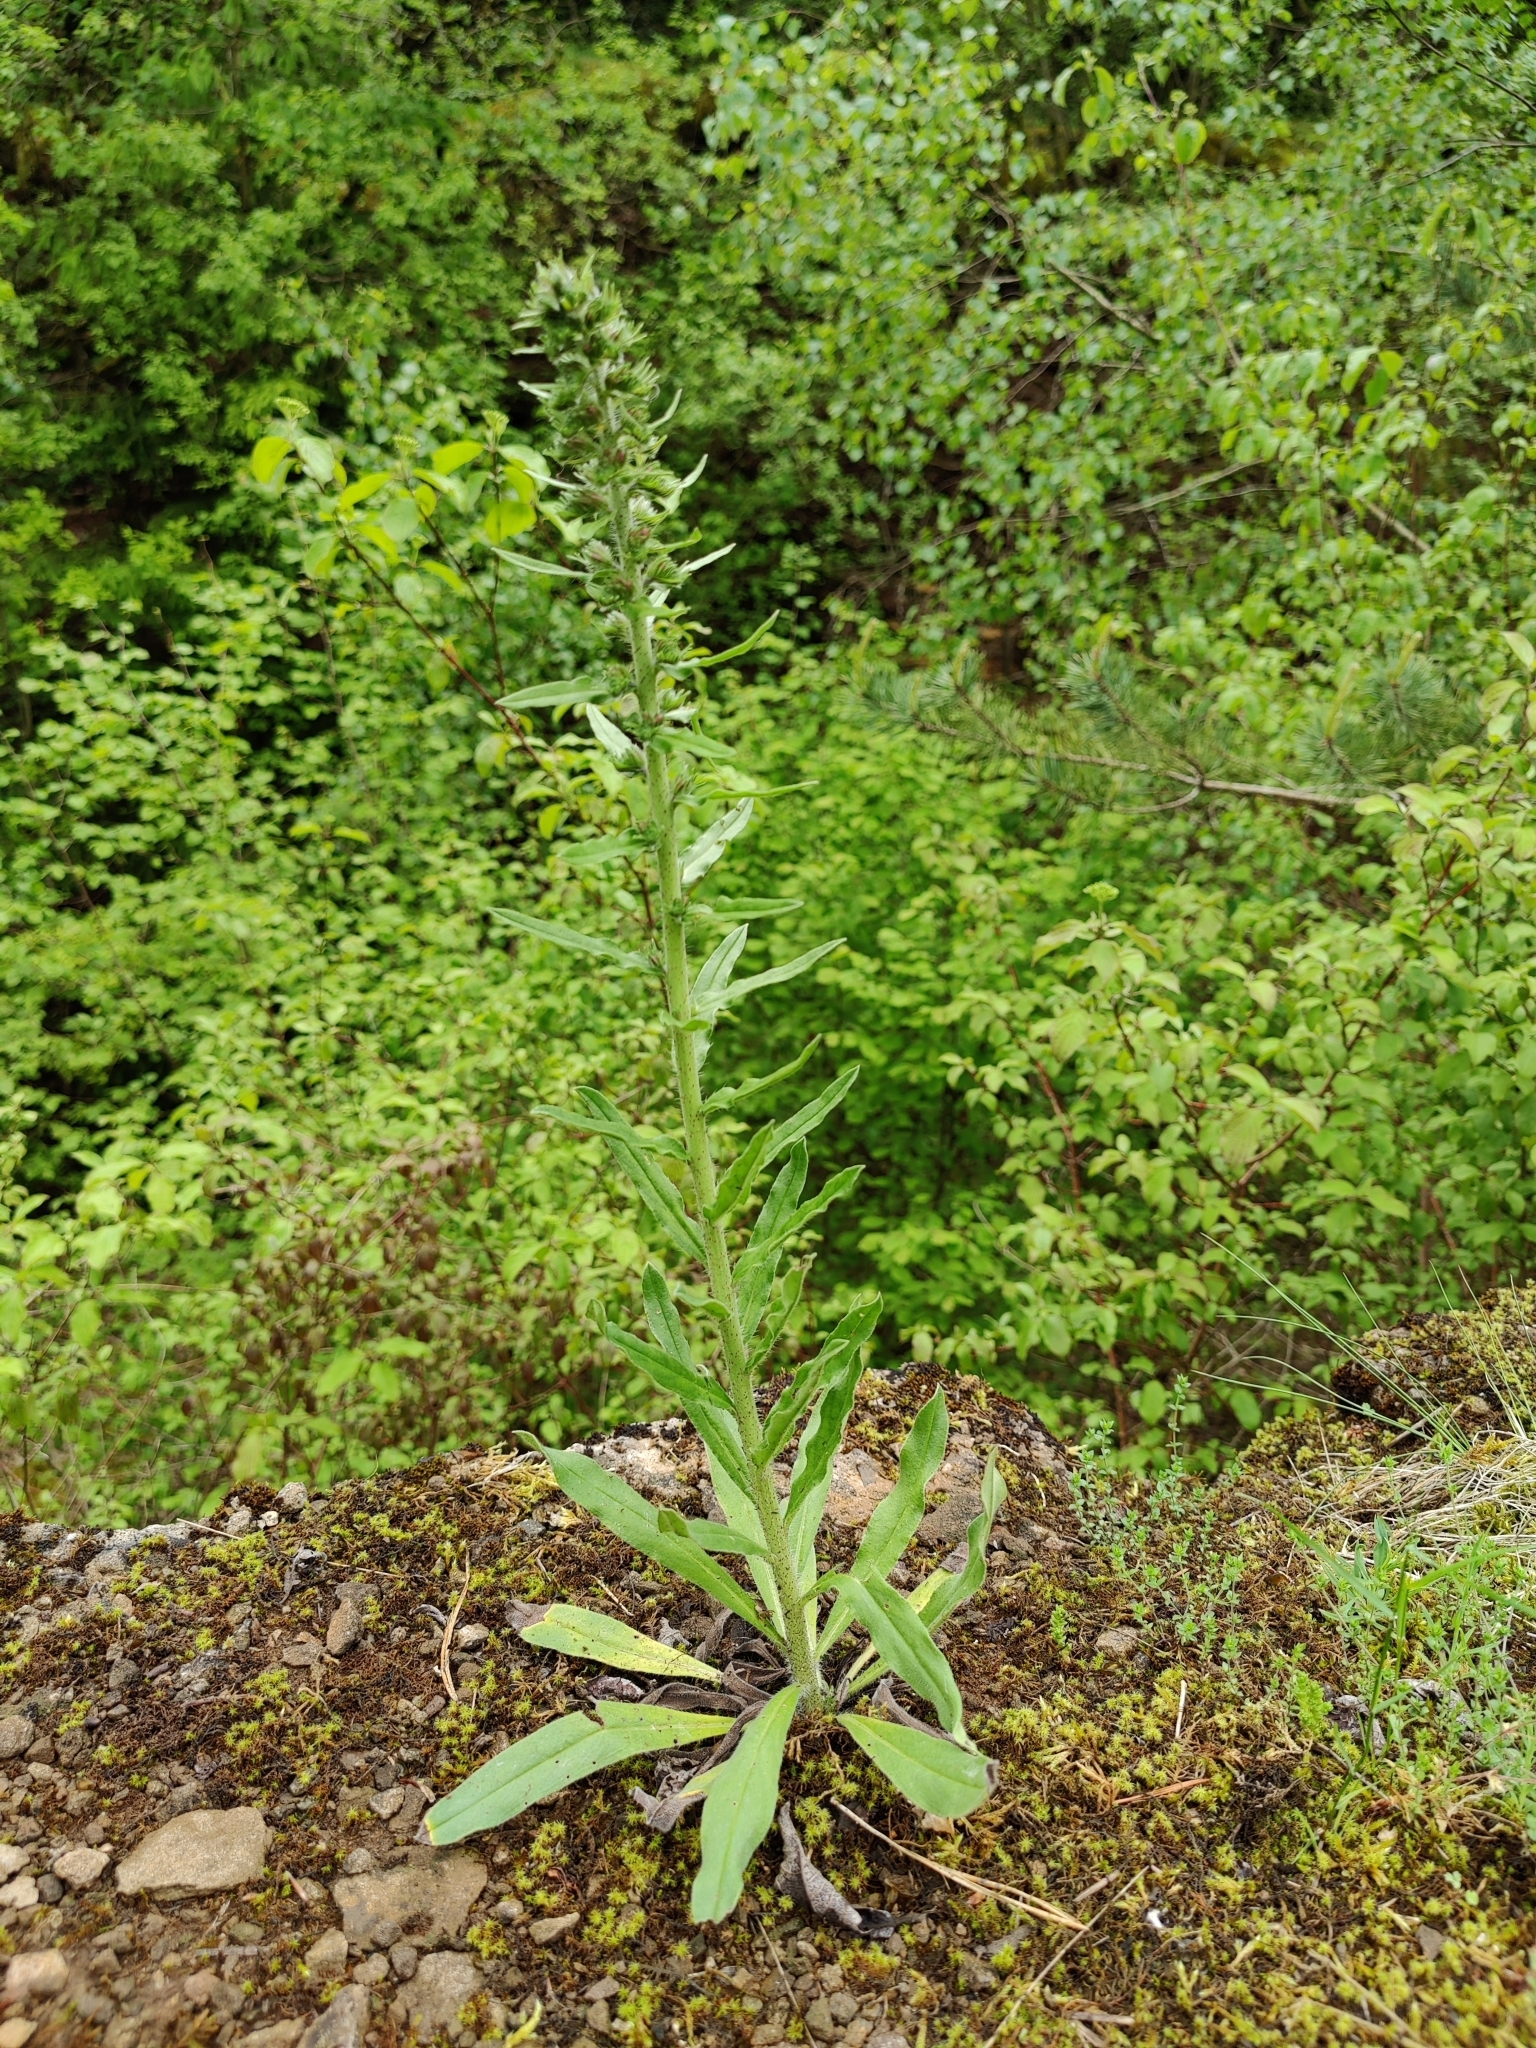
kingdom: Plantae
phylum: Tracheophyta
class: Magnoliopsida
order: Boraginales
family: Boraginaceae
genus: Echium
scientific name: Echium vulgare
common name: Common viper's bugloss
